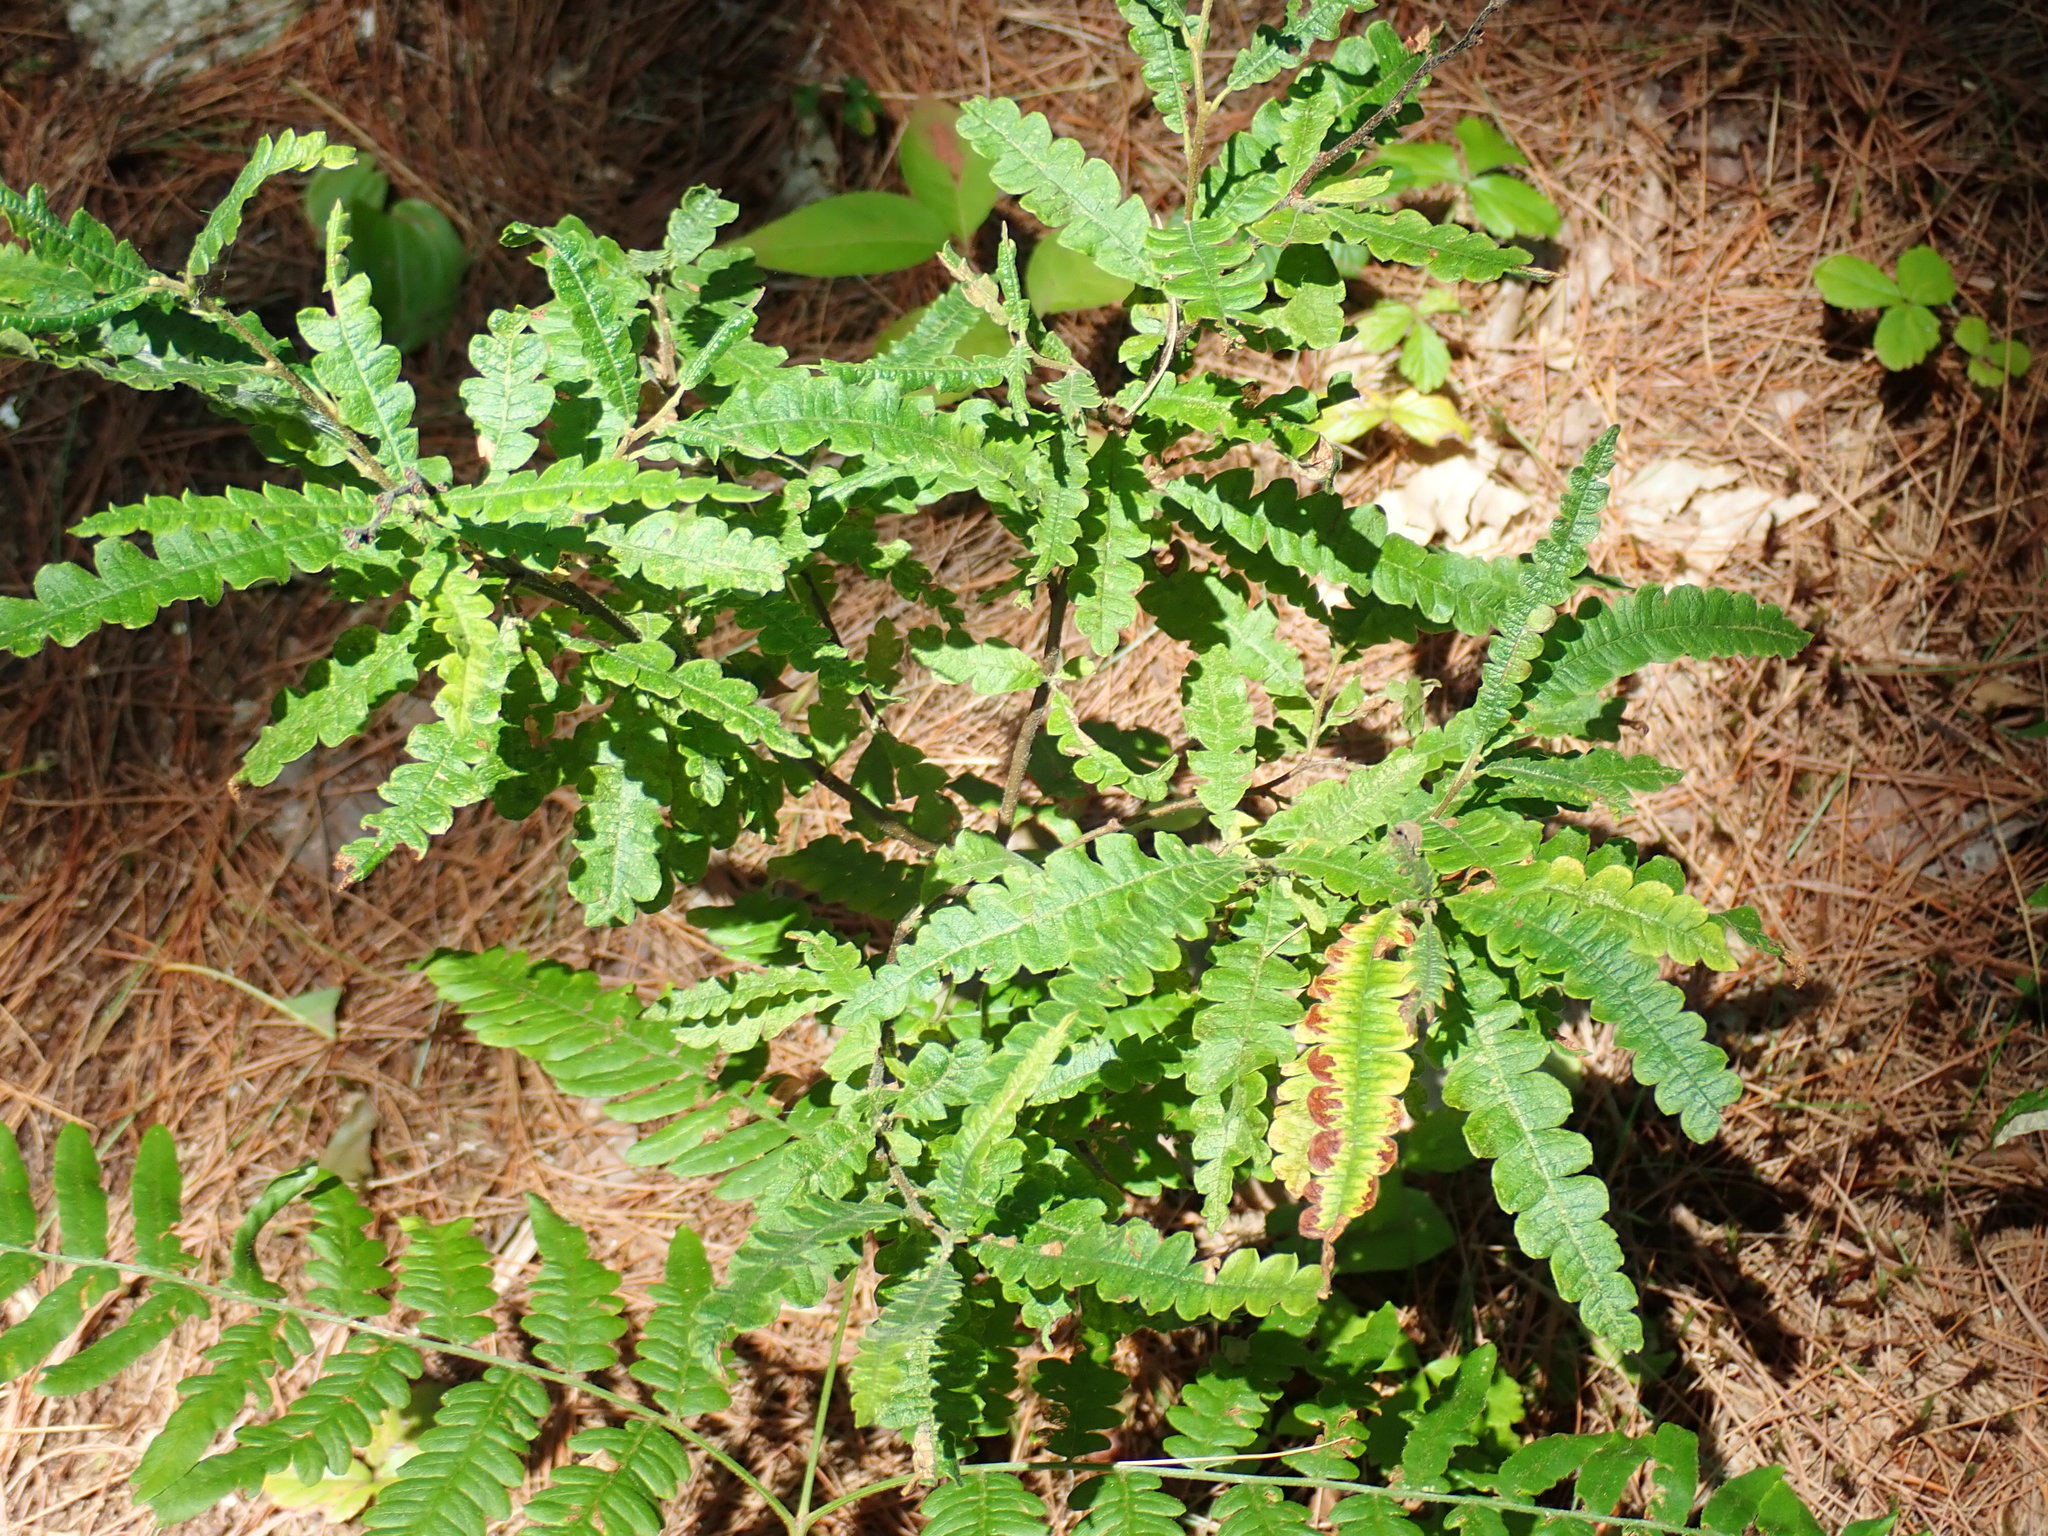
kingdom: Plantae
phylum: Tracheophyta
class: Magnoliopsida
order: Fagales
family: Myricaceae
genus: Comptonia
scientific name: Comptonia peregrina
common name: Sweet-fern
